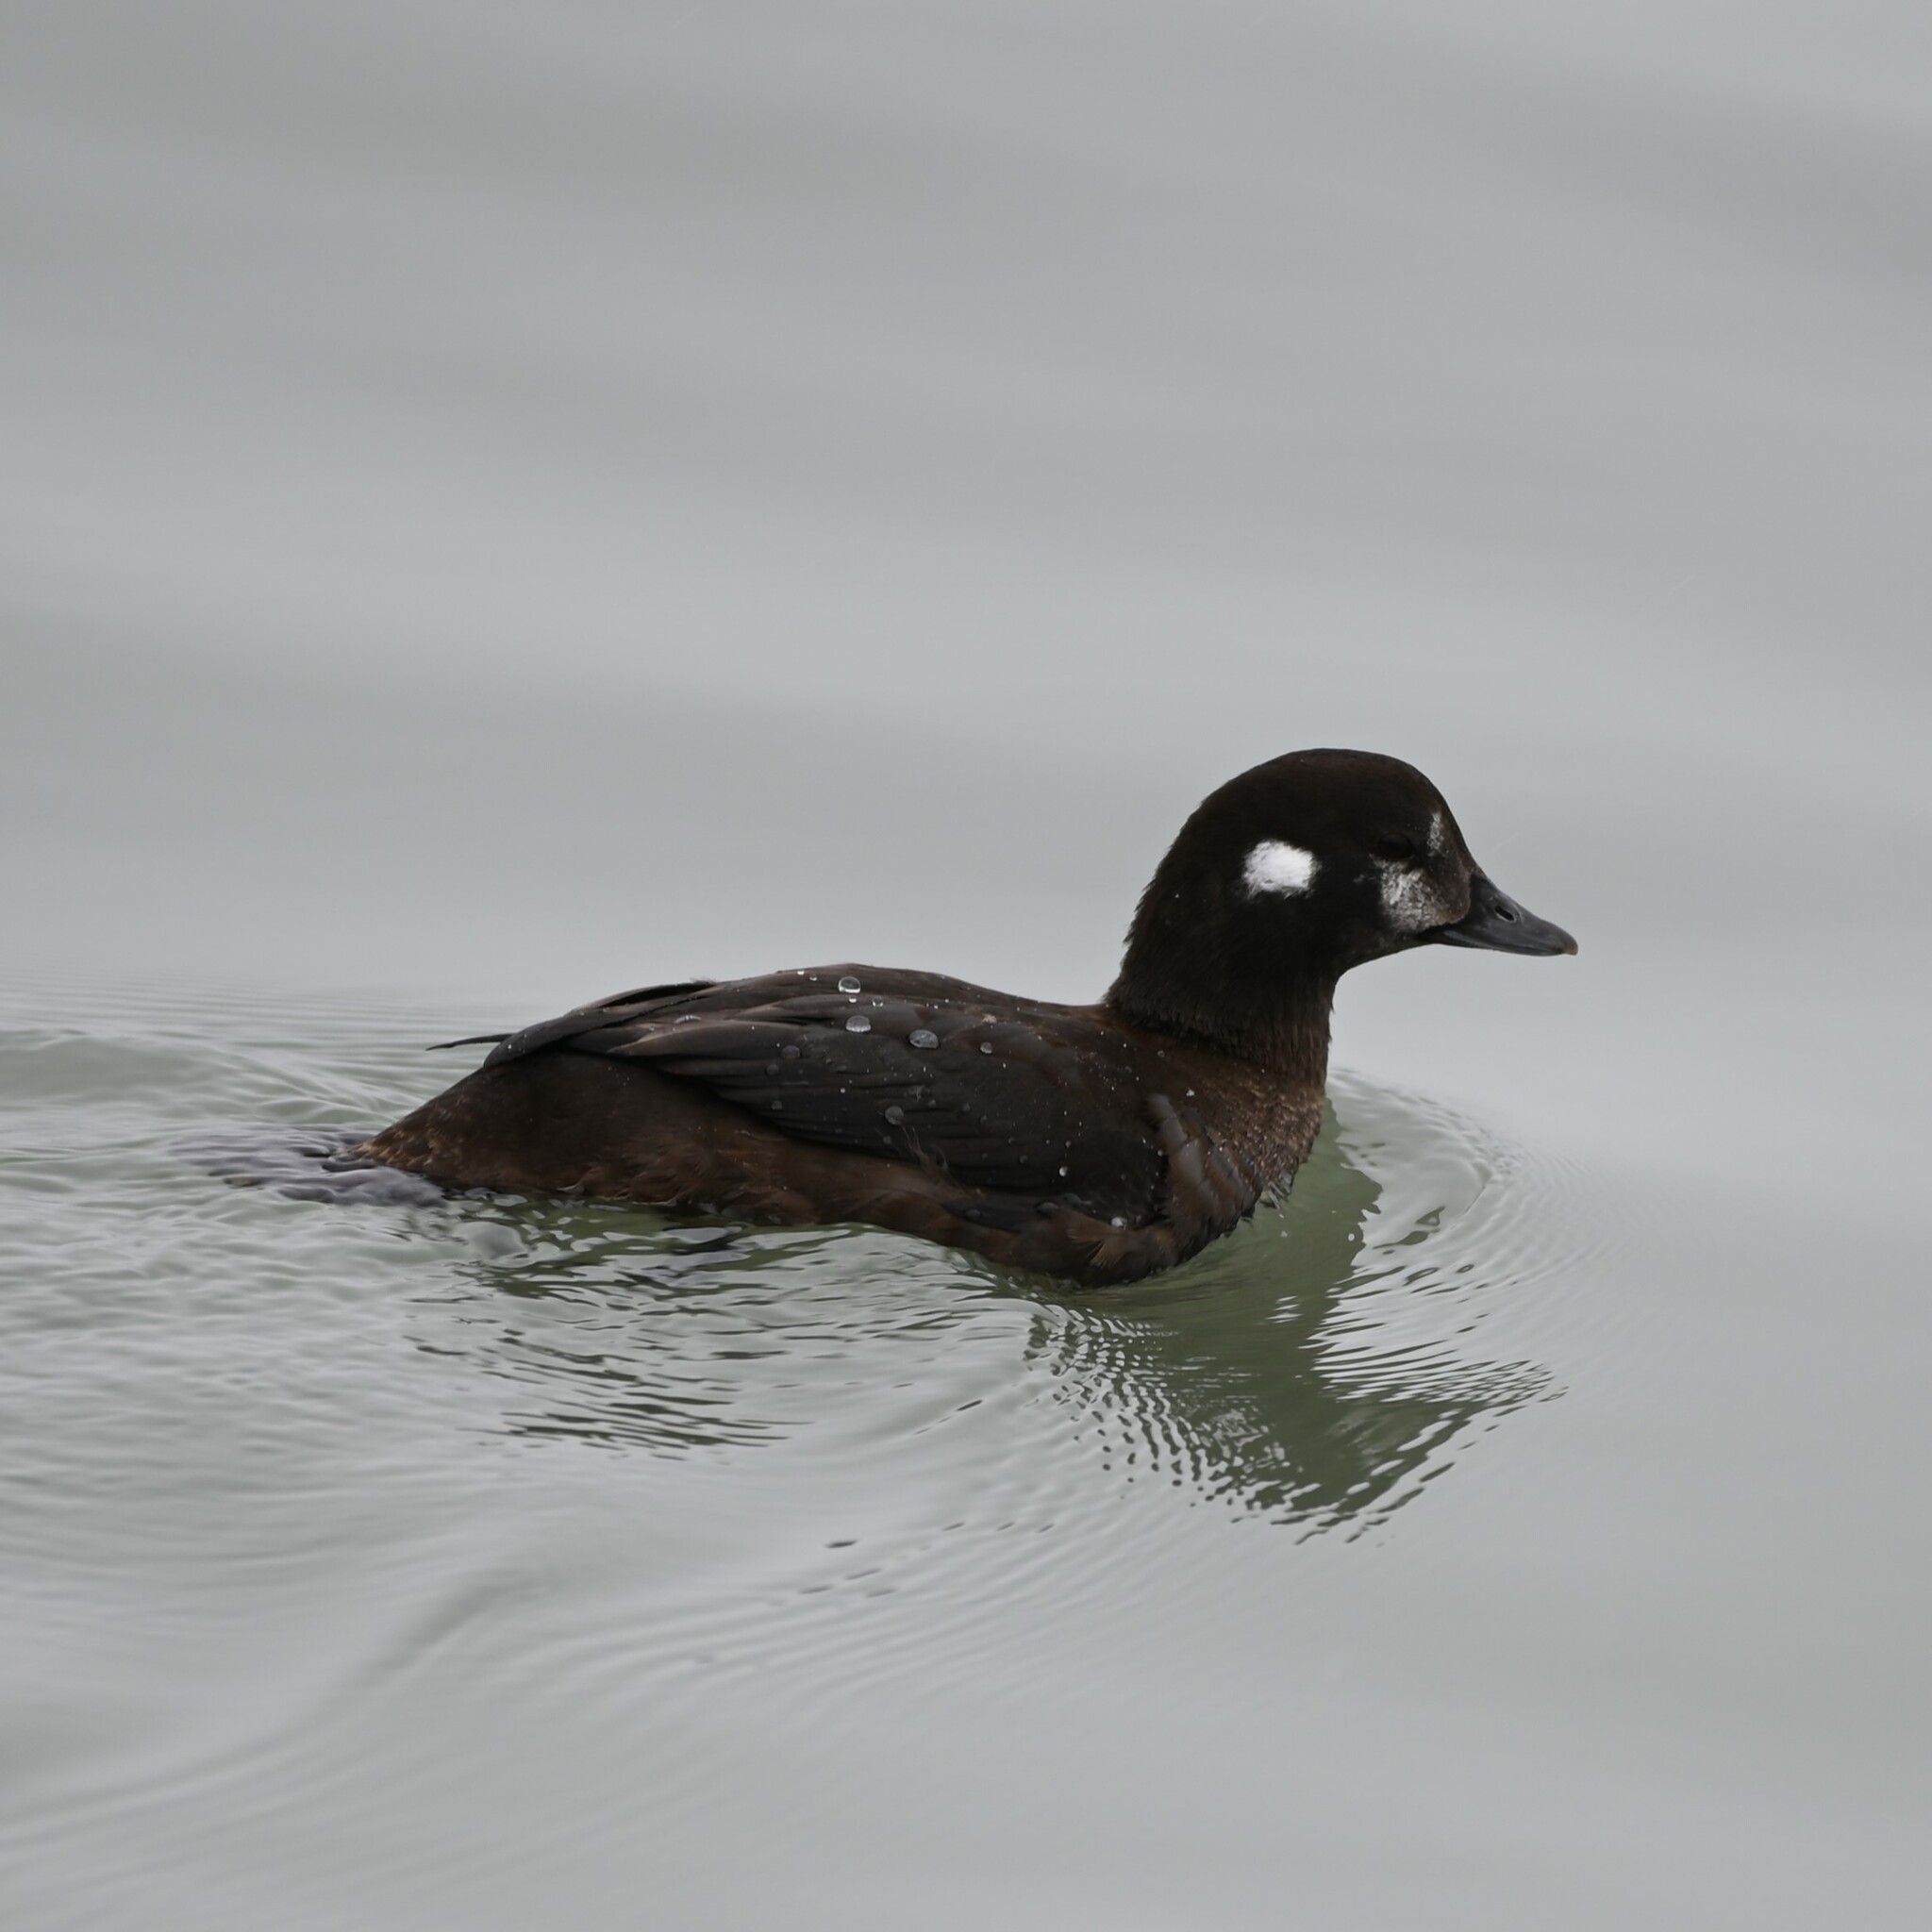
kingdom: Animalia
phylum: Chordata
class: Aves
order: Anseriformes
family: Anatidae
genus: Histrionicus
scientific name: Histrionicus histrionicus
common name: Harlequin duck
